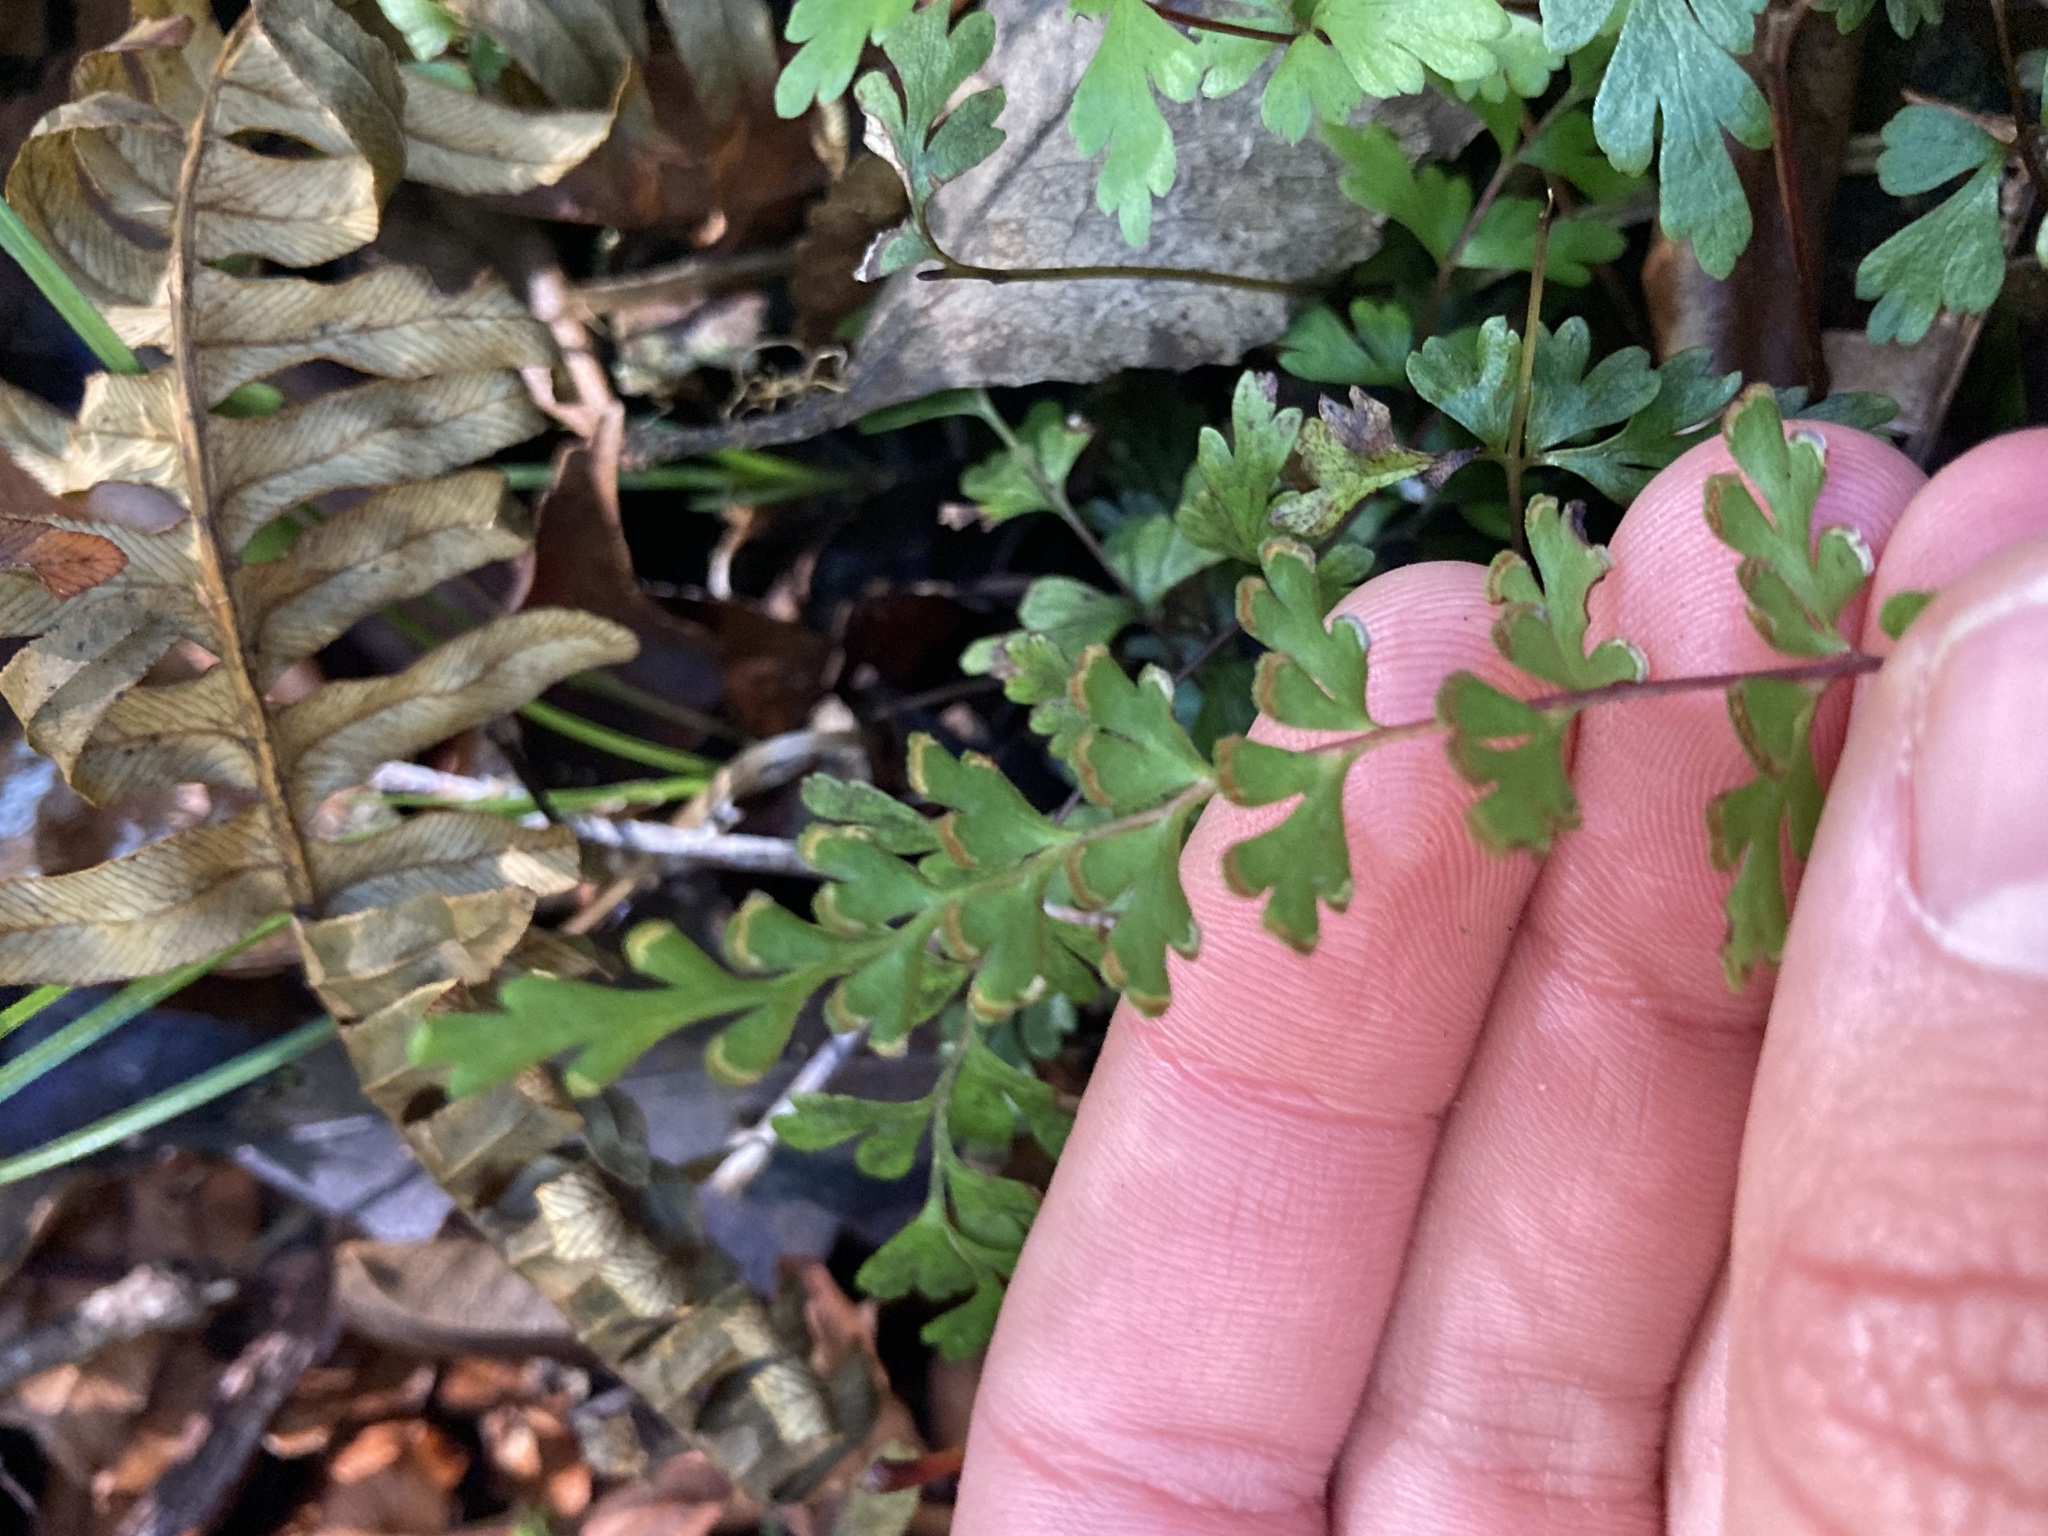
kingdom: Plantae
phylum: Tracheophyta
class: Polypodiopsida
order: Polypodiales
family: Lindsaeaceae
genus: Lindsaea
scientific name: Lindsaea trichomanoides
